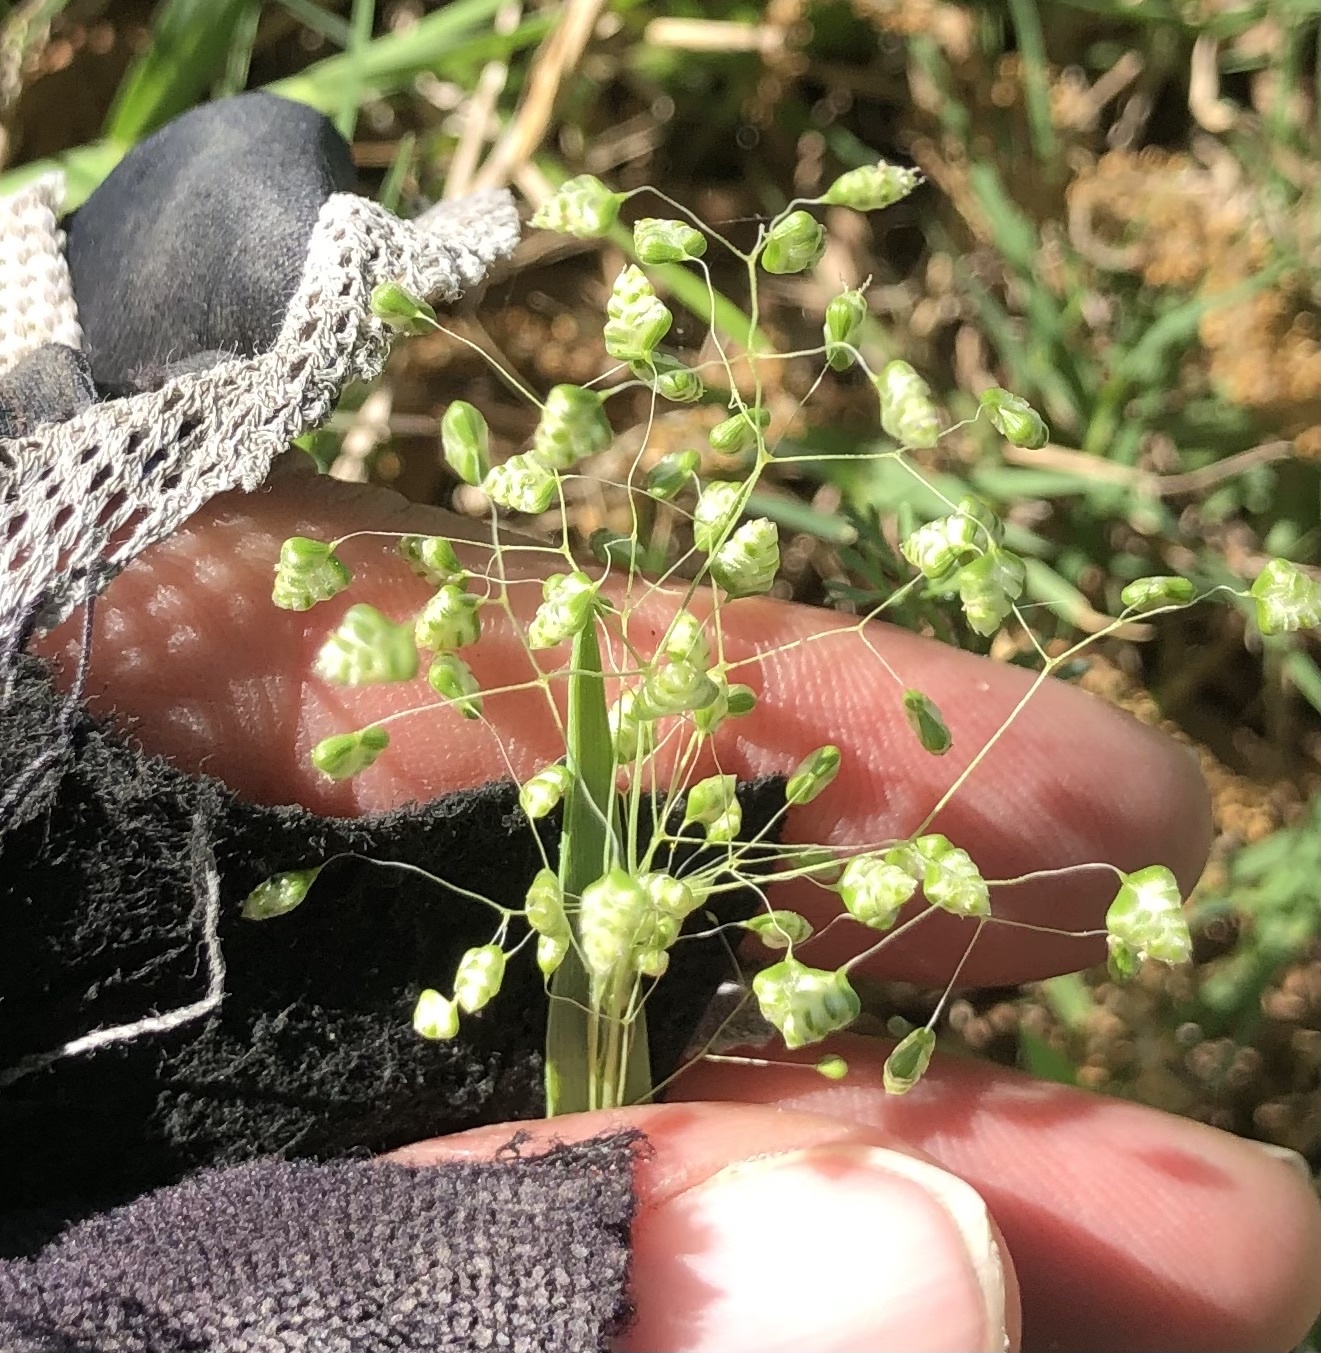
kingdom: Plantae
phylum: Tracheophyta
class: Liliopsida
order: Poales
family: Poaceae
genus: Briza
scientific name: Briza minor
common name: Lesser quaking-grass
